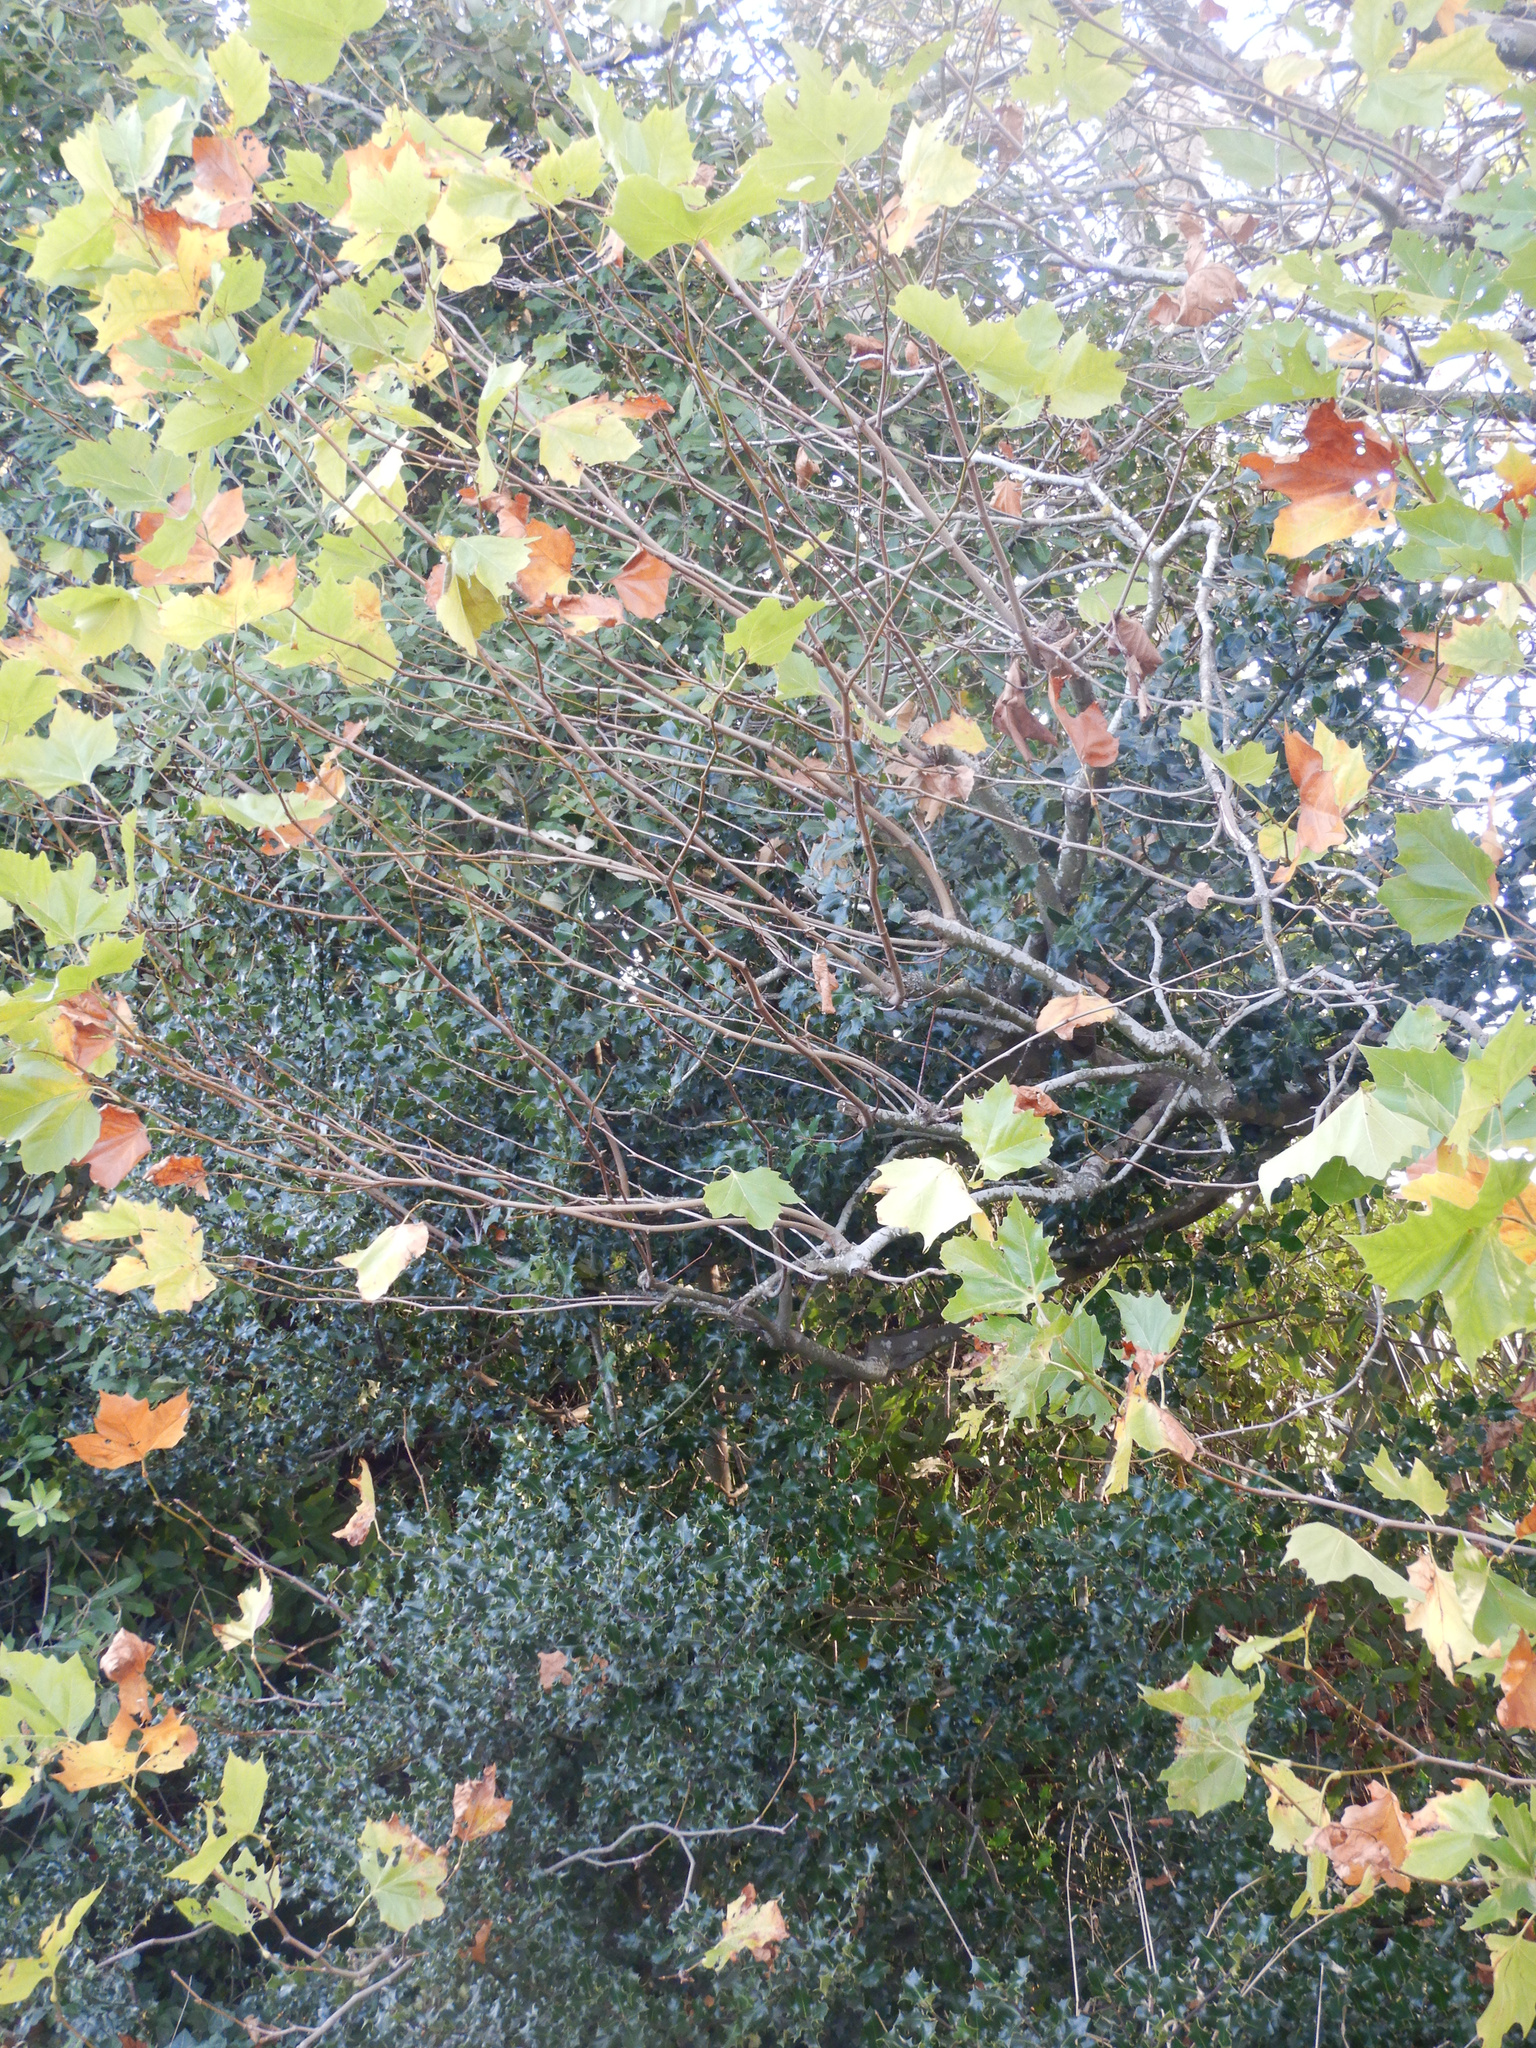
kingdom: Plantae
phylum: Tracheophyta
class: Magnoliopsida
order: Aquifoliales
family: Aquifoliaceae
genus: Ilex
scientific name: Ilex aquifolium
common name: English holly
